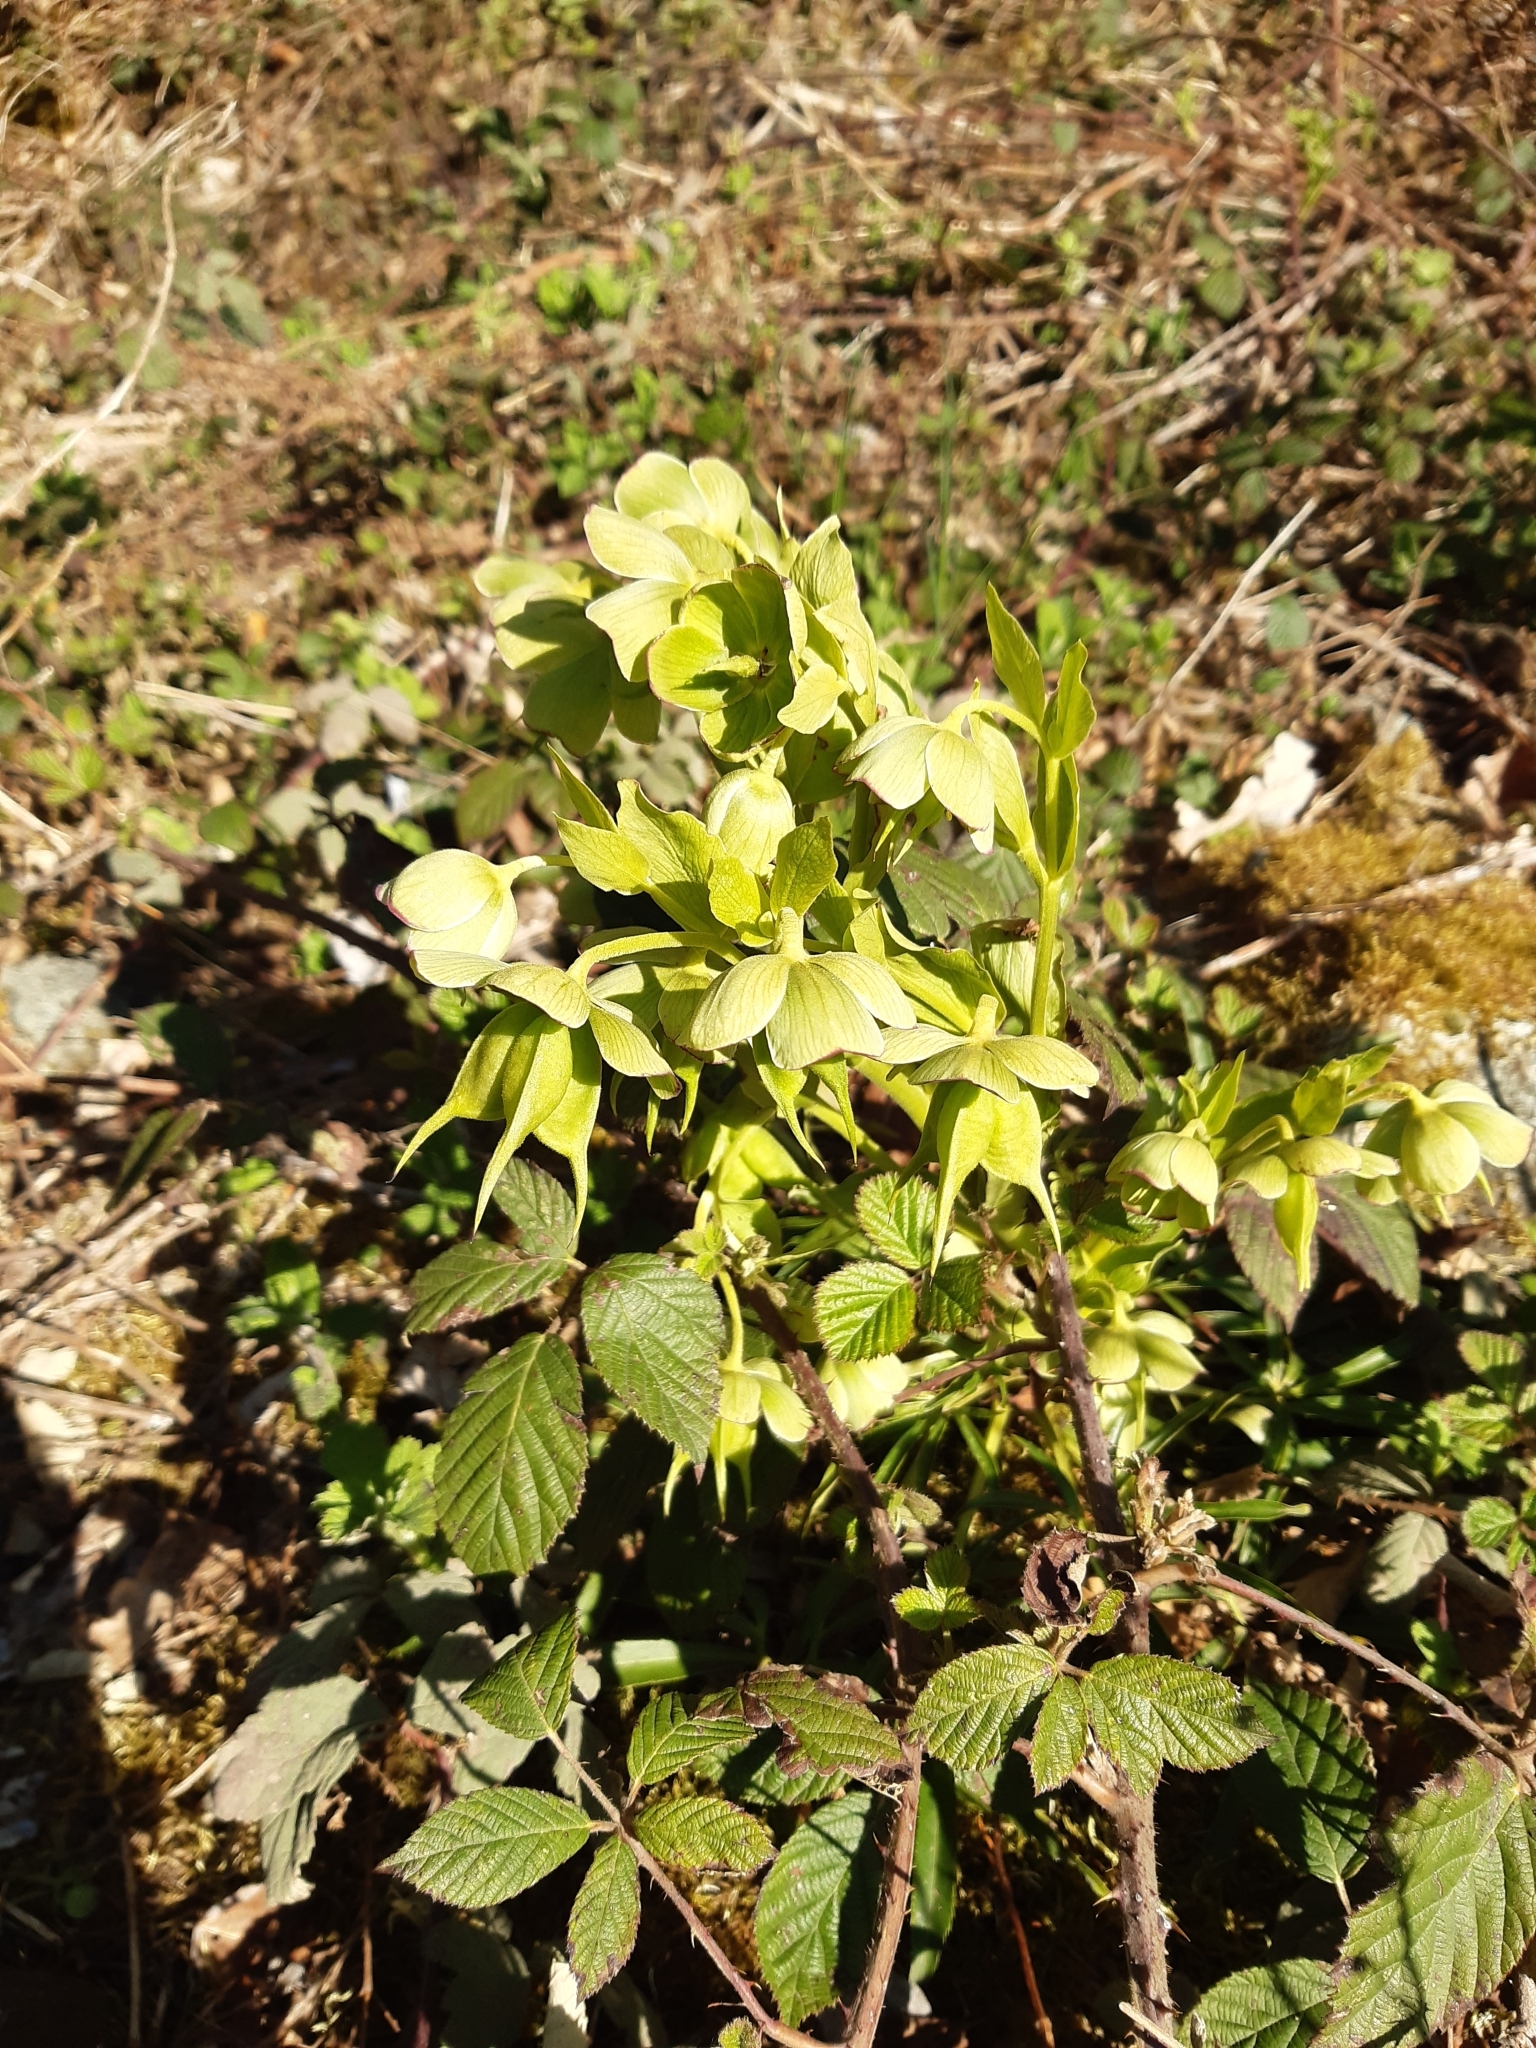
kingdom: Plantae
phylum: Tracheophyta
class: Magnoliopsida
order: Ranunculales
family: Ranunculaceae
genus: Helleborus
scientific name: Helleborus foetidus
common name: Stinking hellebore
